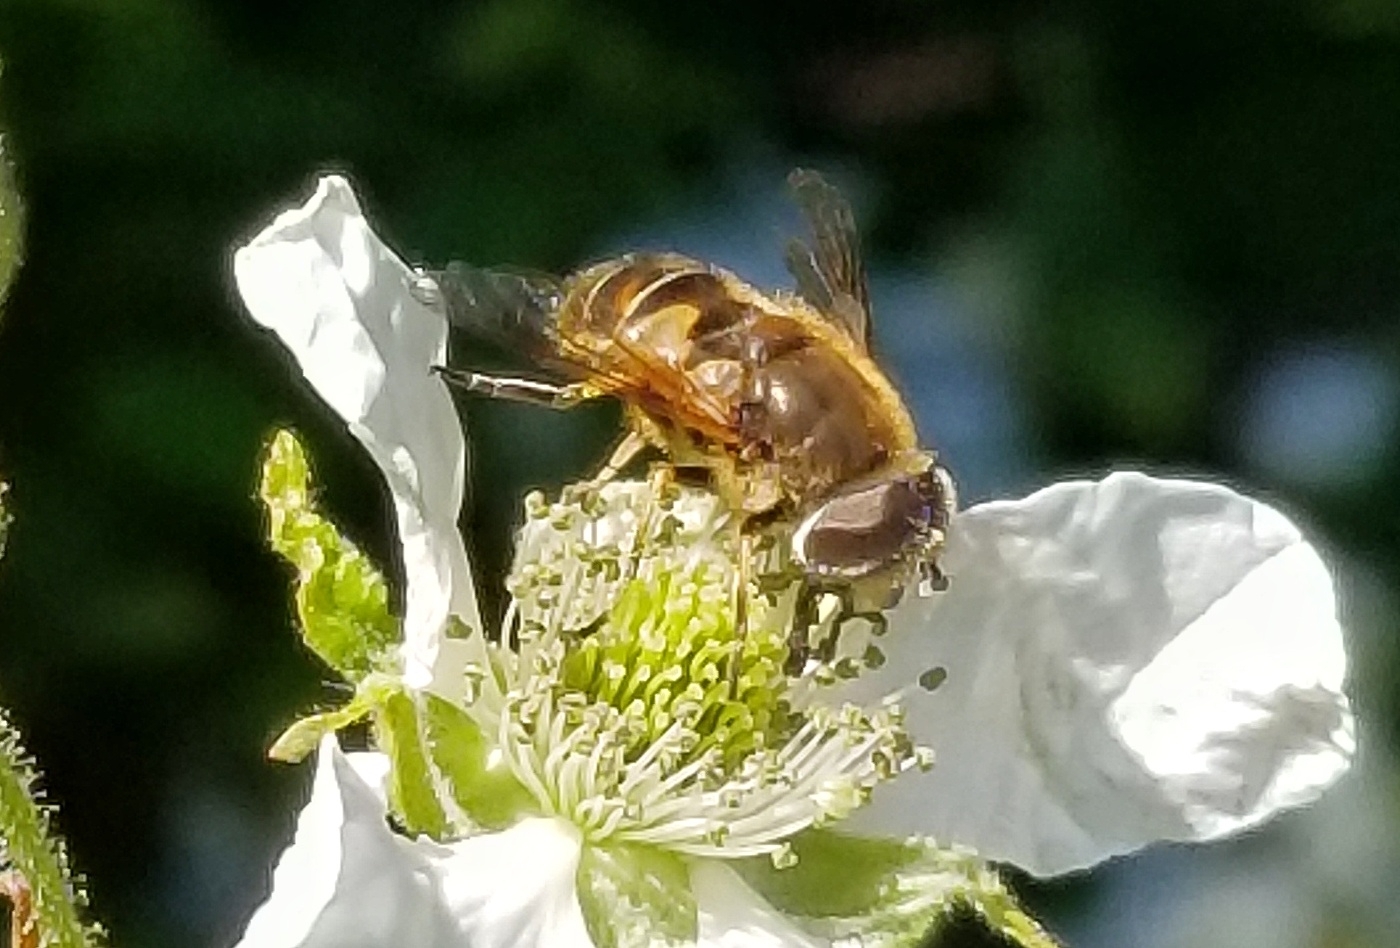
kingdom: Animalia
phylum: Arthropoda
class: Insecta
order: Diptera
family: Syrphidae
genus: Eristalis
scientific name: Eristalis nemorum
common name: Orange-spined drone fly
